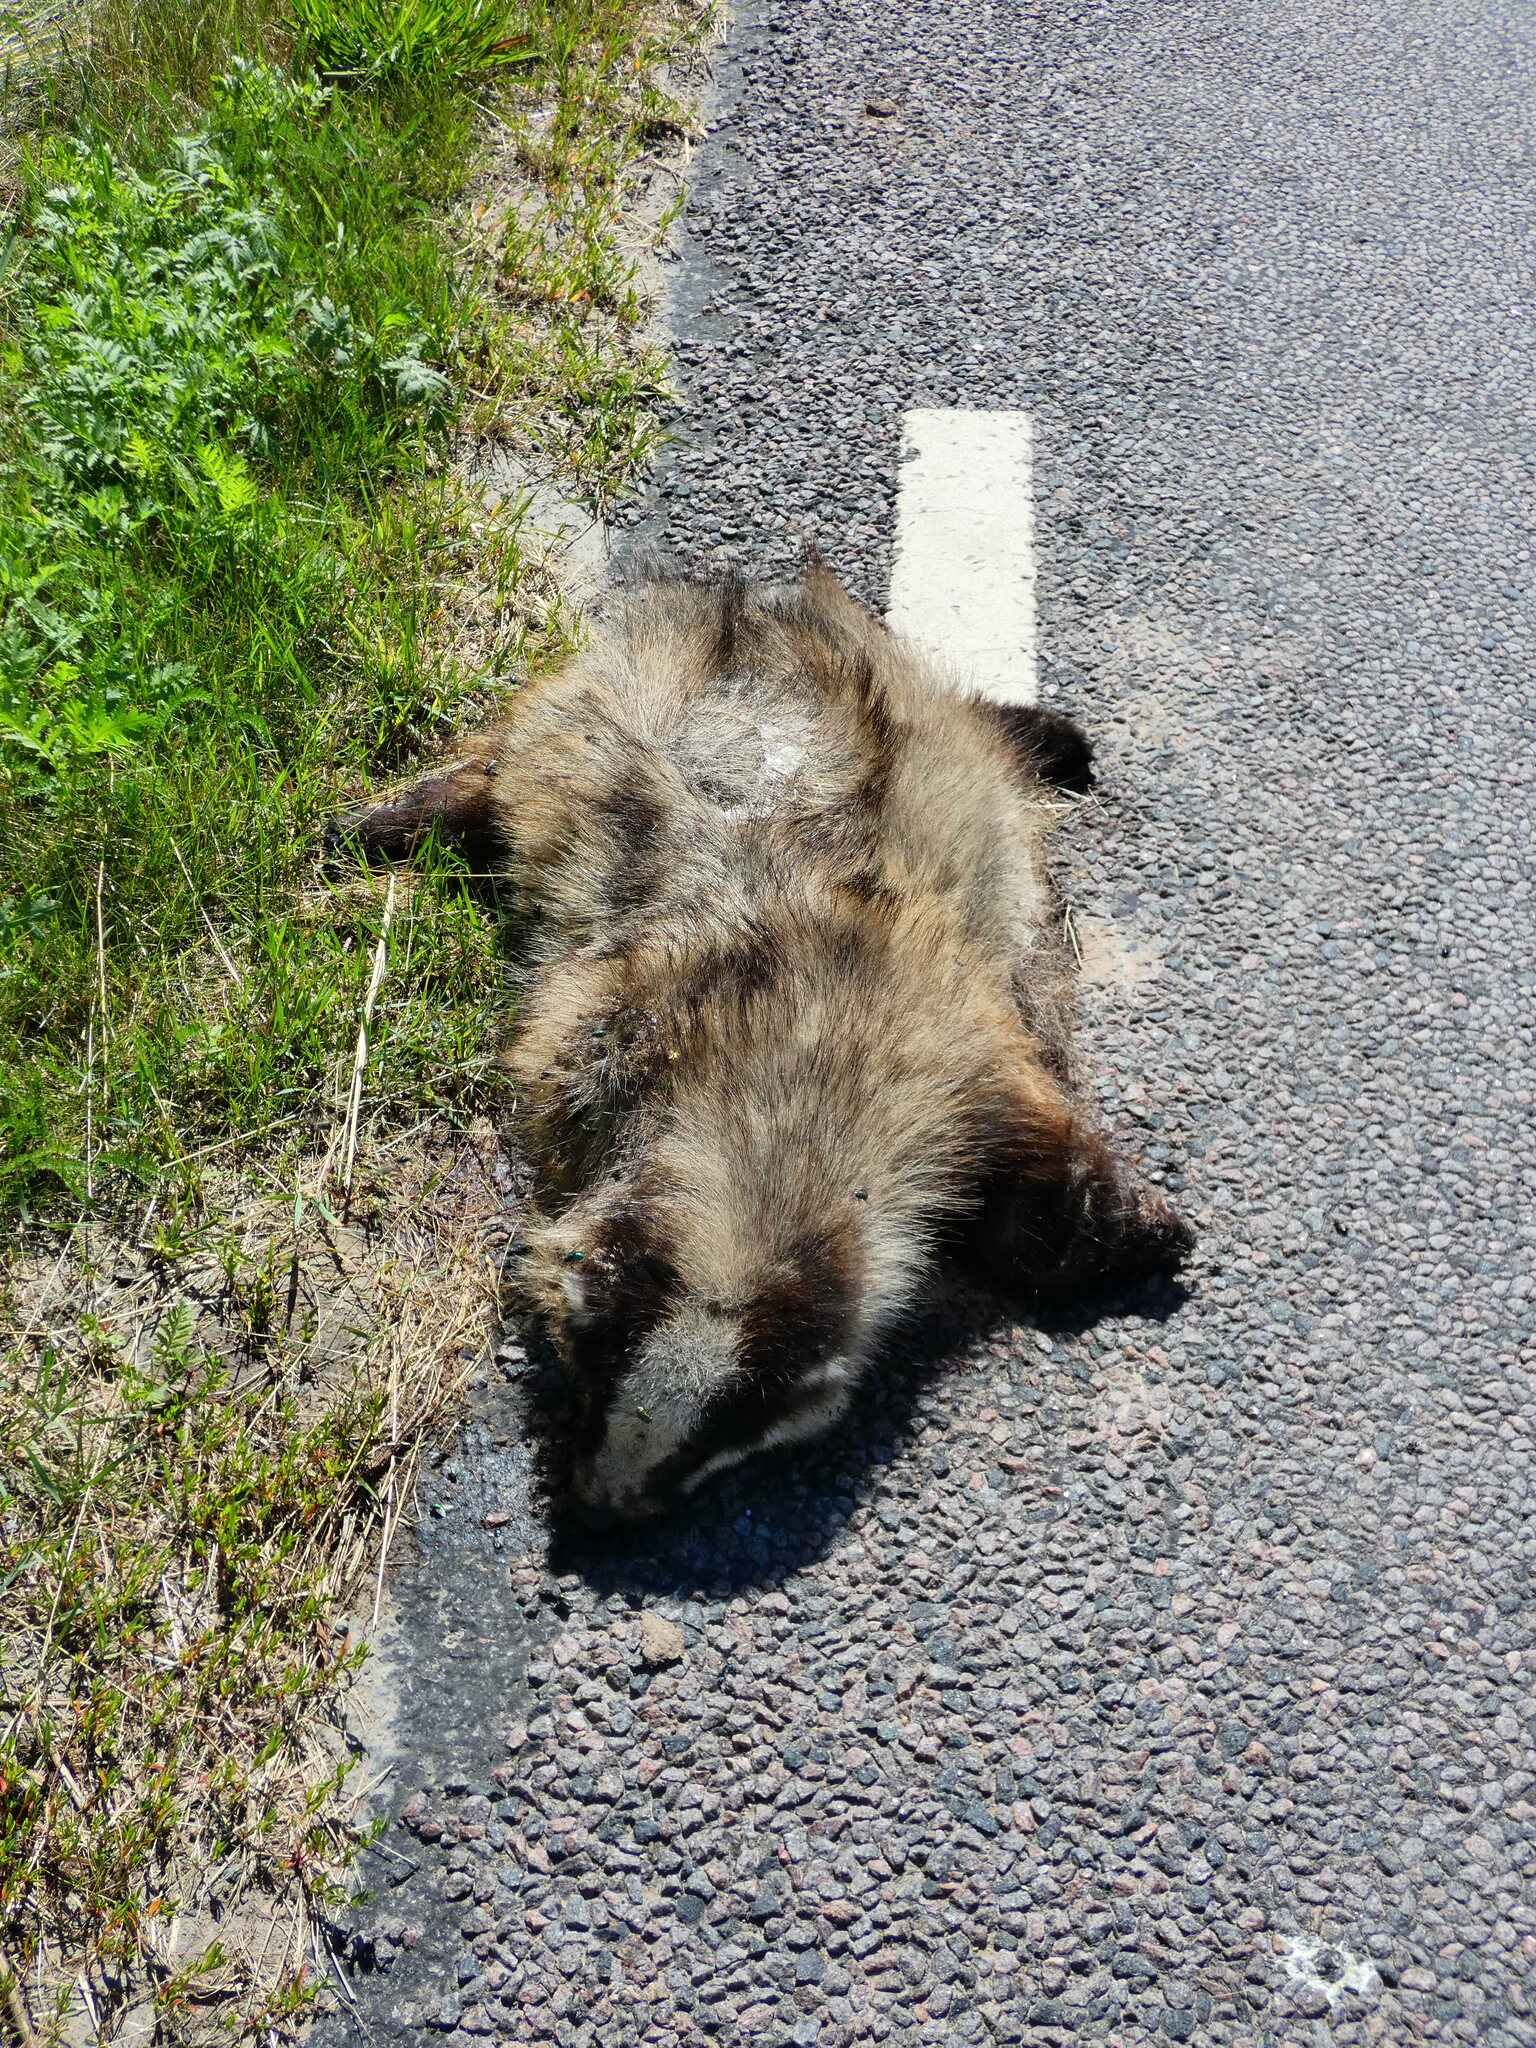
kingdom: Animalia
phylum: Chordata
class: Mammalia
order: Carnivora
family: Mustelidae
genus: Meles
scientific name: Meles meles
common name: Eurasian badger
